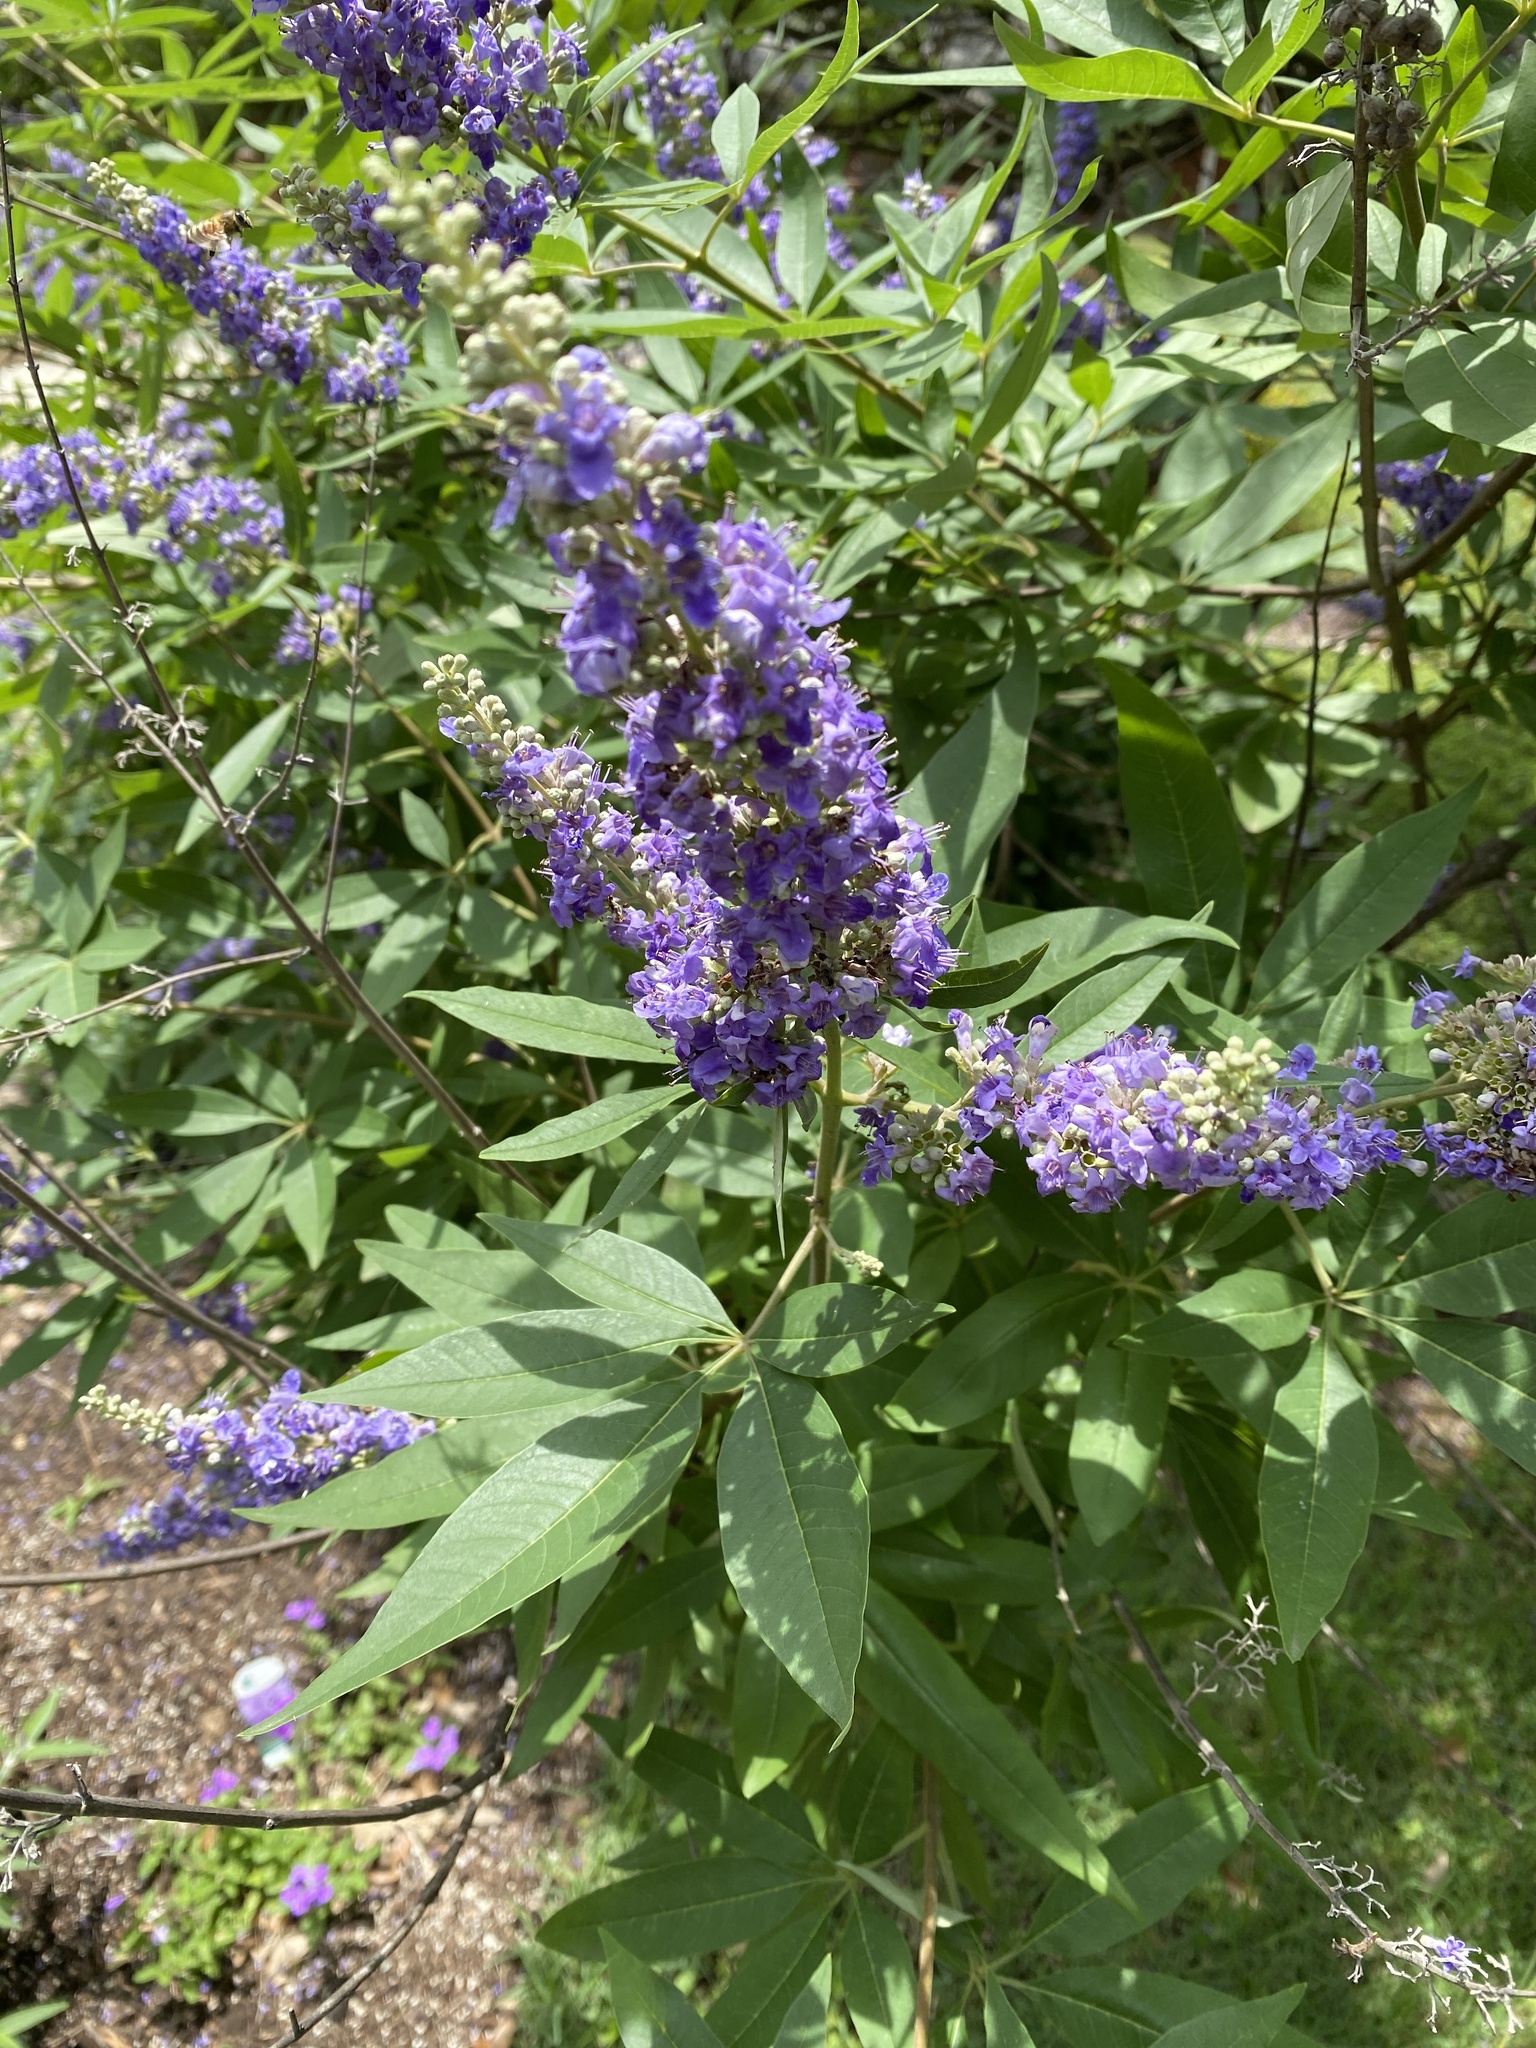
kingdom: Plantae
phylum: Tracheophyta
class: Magnoliopsida
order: Lamiales
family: Lamiaceae
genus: Vitex
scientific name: Vitex agnus-castus
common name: Chasteberry
